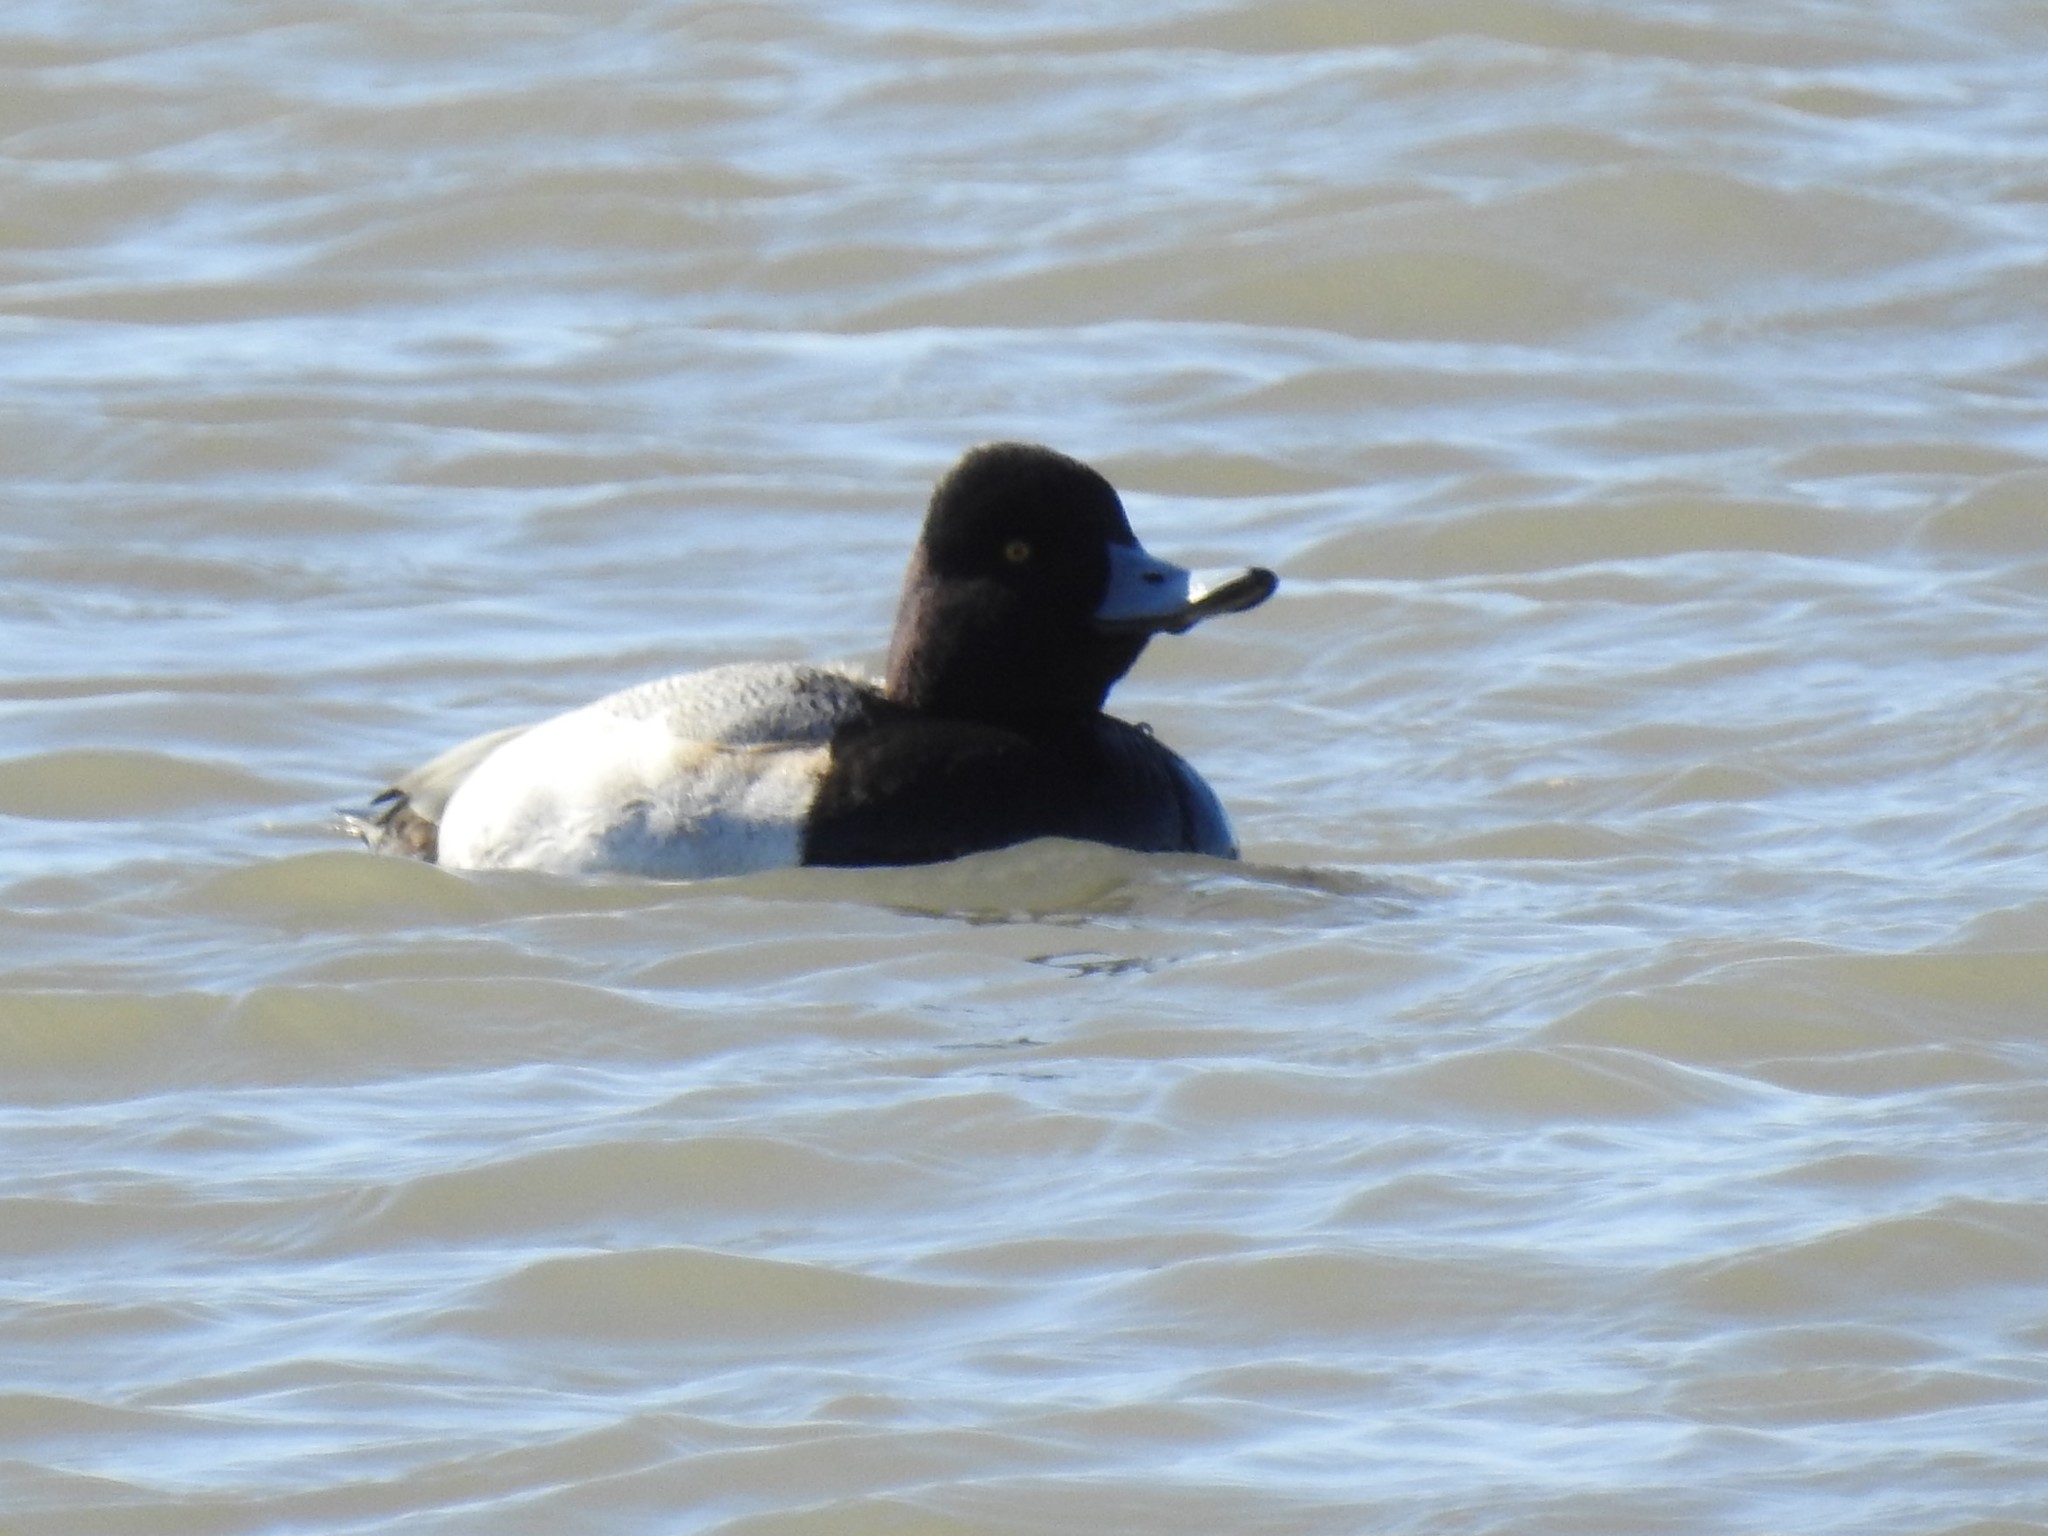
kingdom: Animalia
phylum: Chordata
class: Aves
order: Anseriformes
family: Anatidae
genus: Aythya
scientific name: Aythya affinis
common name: Lesser scaup
